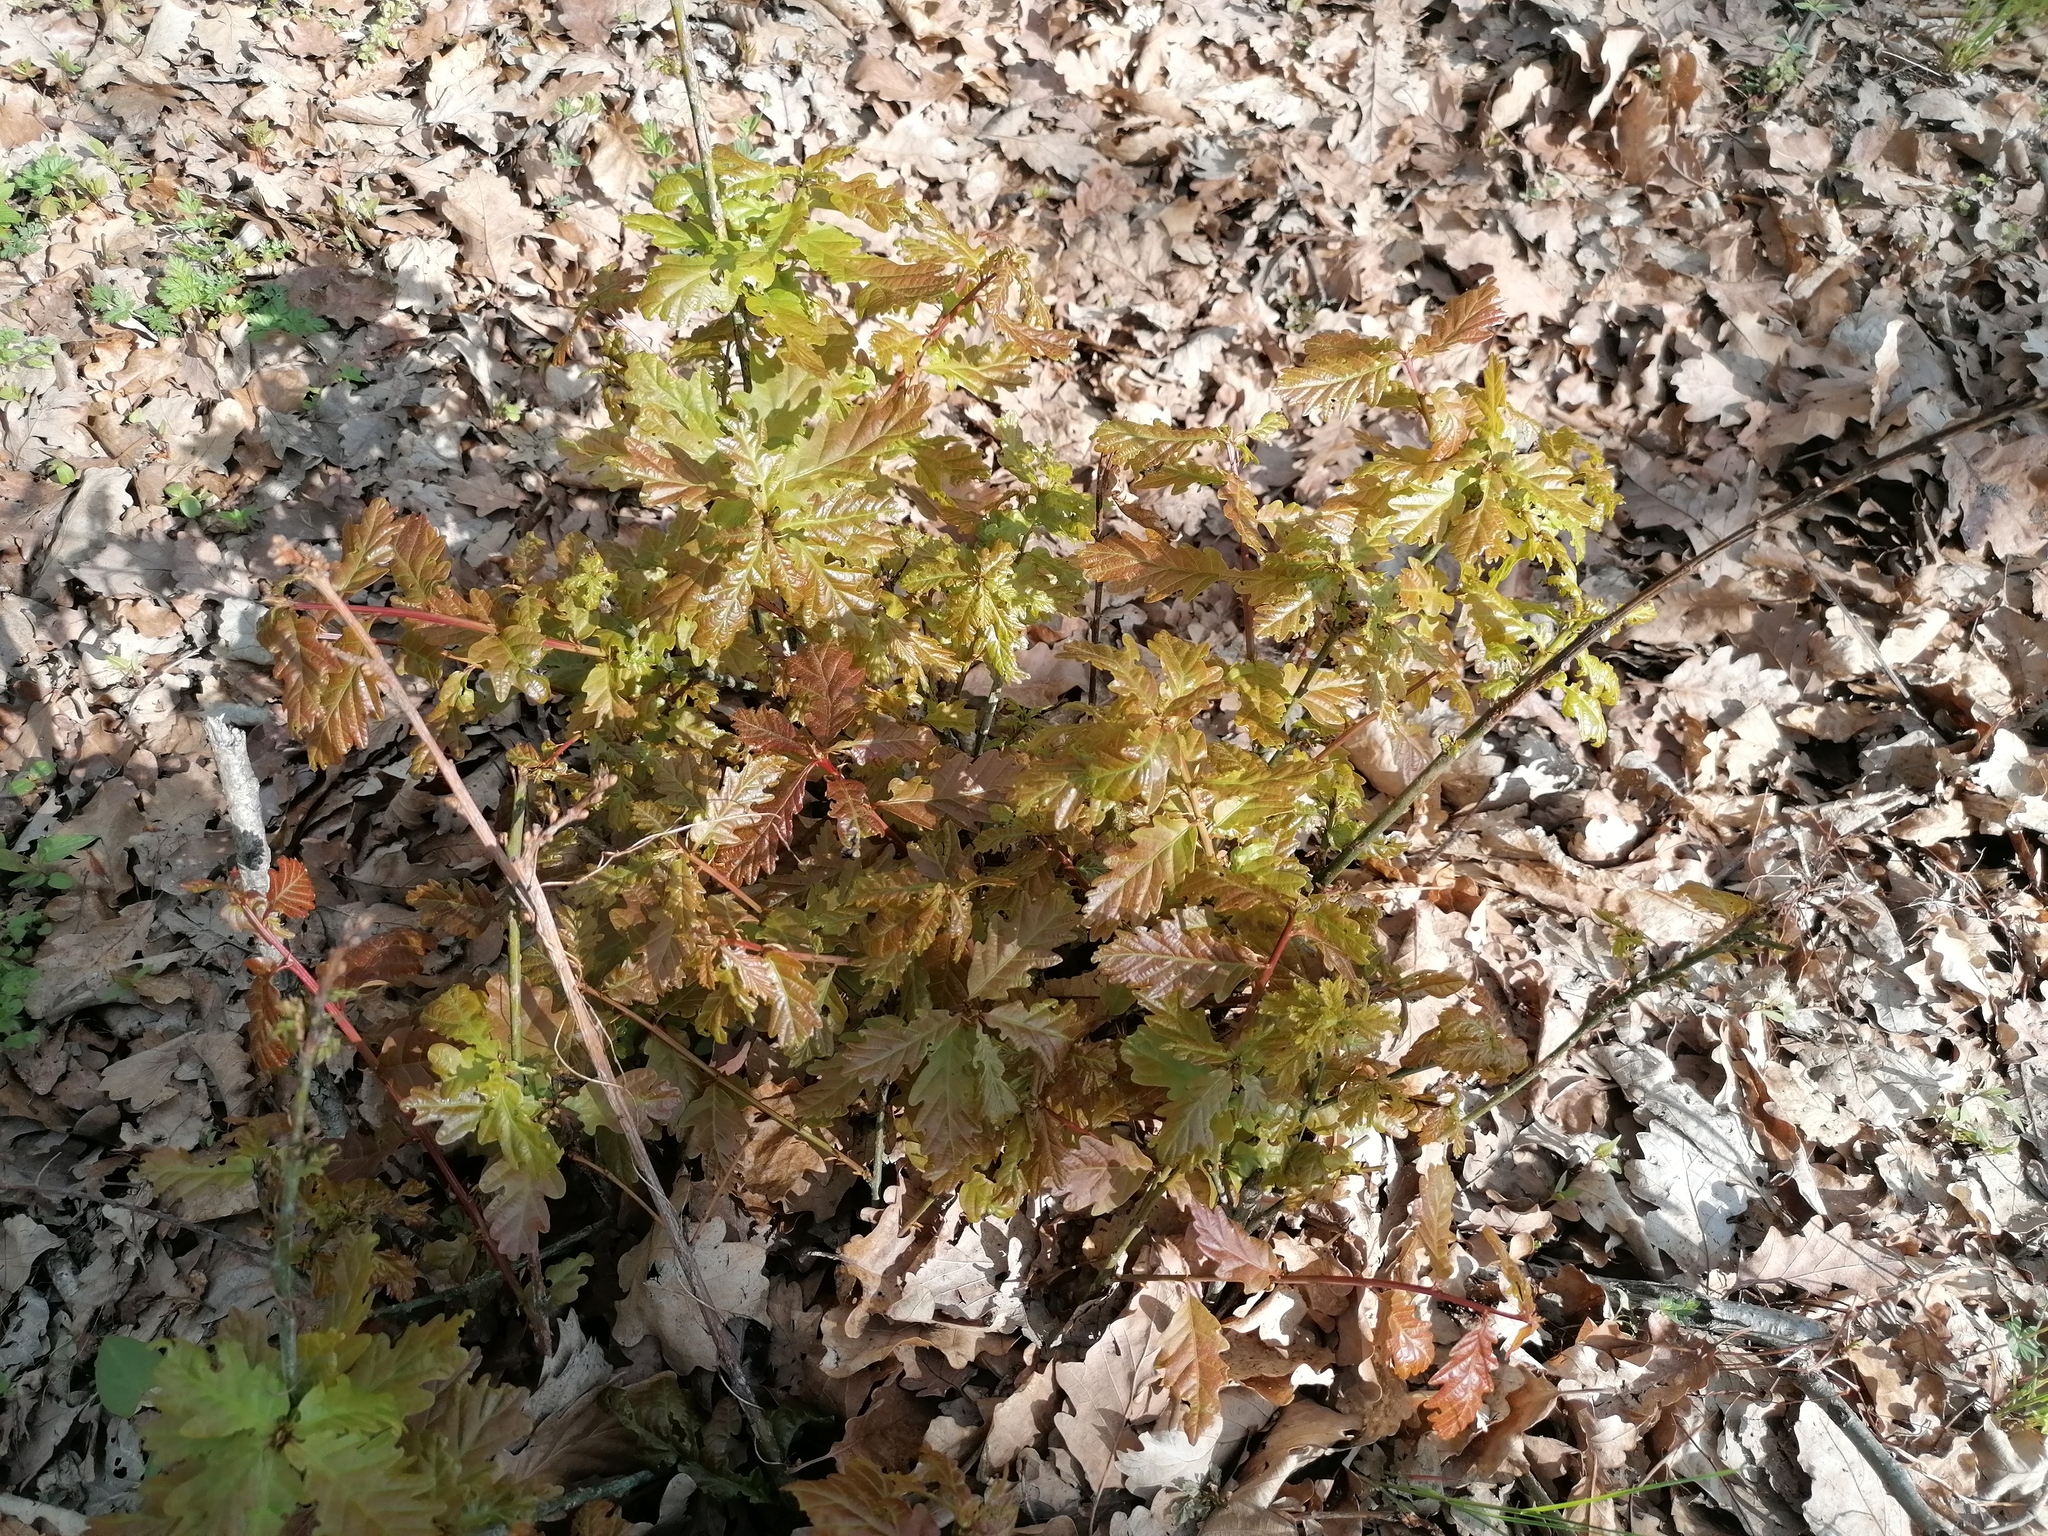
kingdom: Plantae
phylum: Tracheophyta
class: Magnoliopsida
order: Fagales
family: Fagaceae
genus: Quercus
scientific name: Quercus robur
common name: Pedunculate oak
